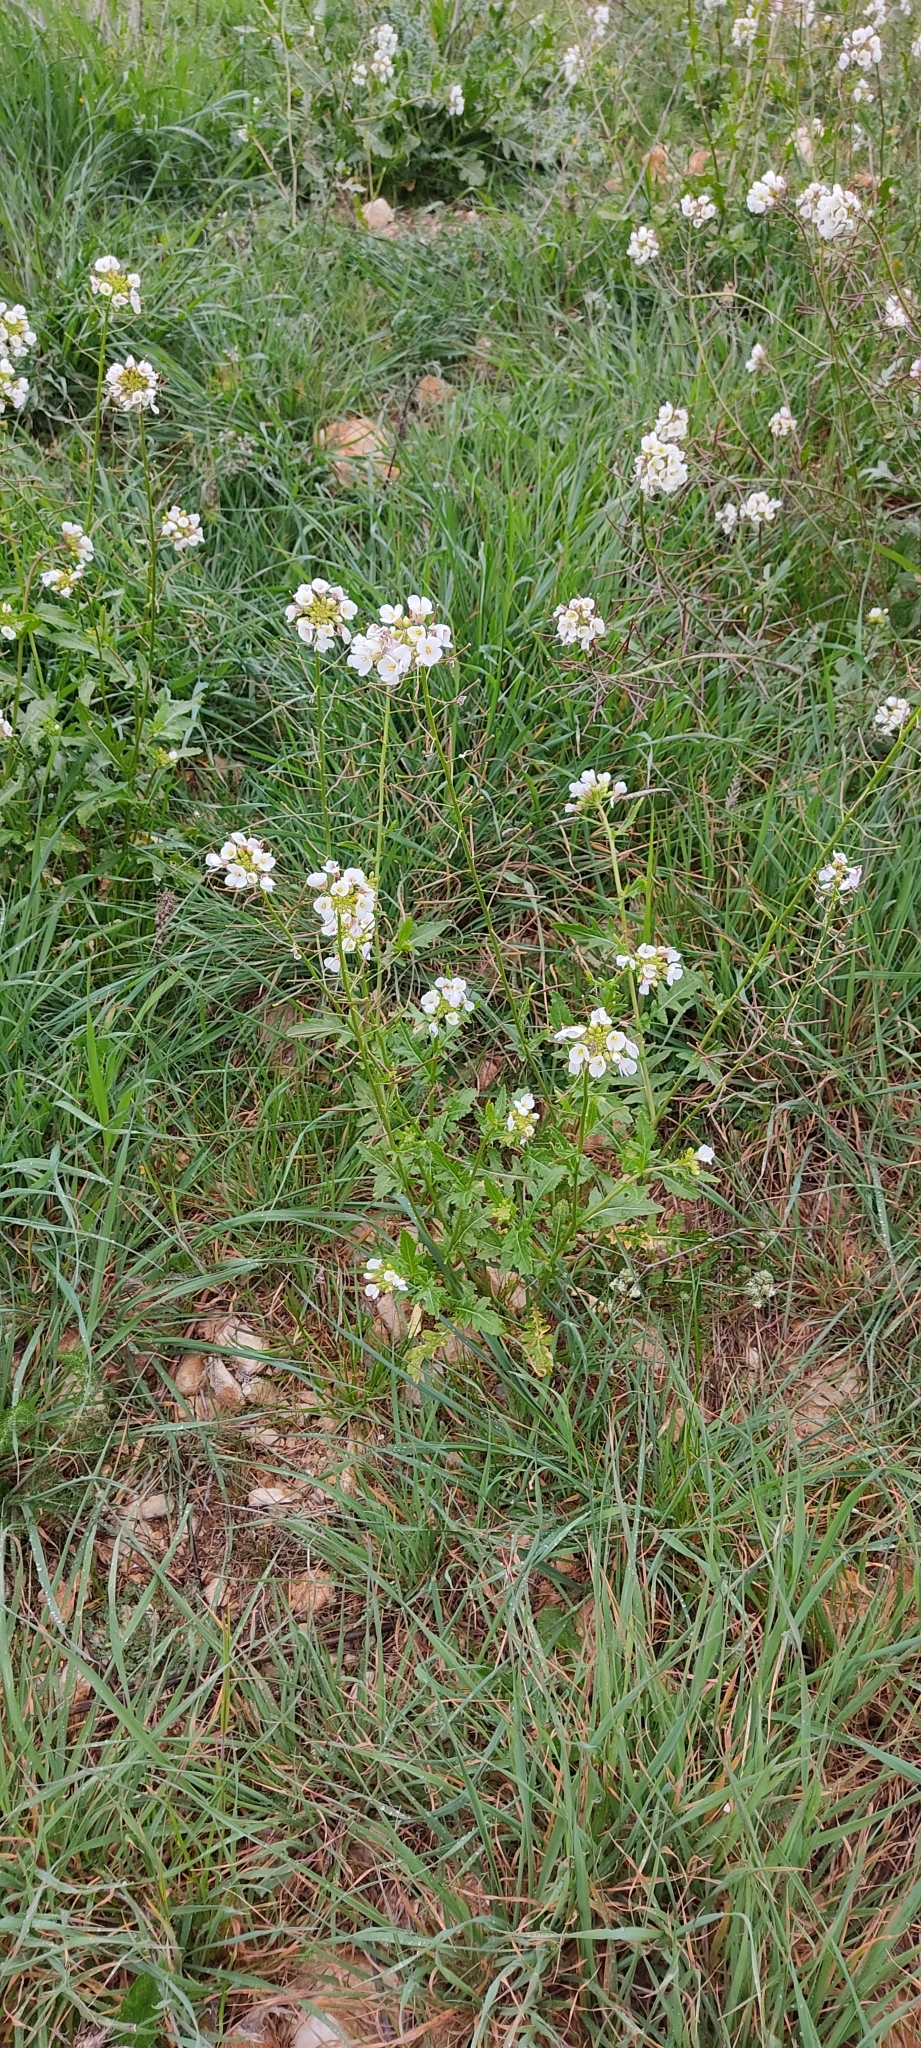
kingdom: Plantae
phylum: Tracheophyta
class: Magnoliopsida
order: Brassicales
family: Brassicaceae
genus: Diplotaxis
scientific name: Diplotaxis erucoides
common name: White rocket
